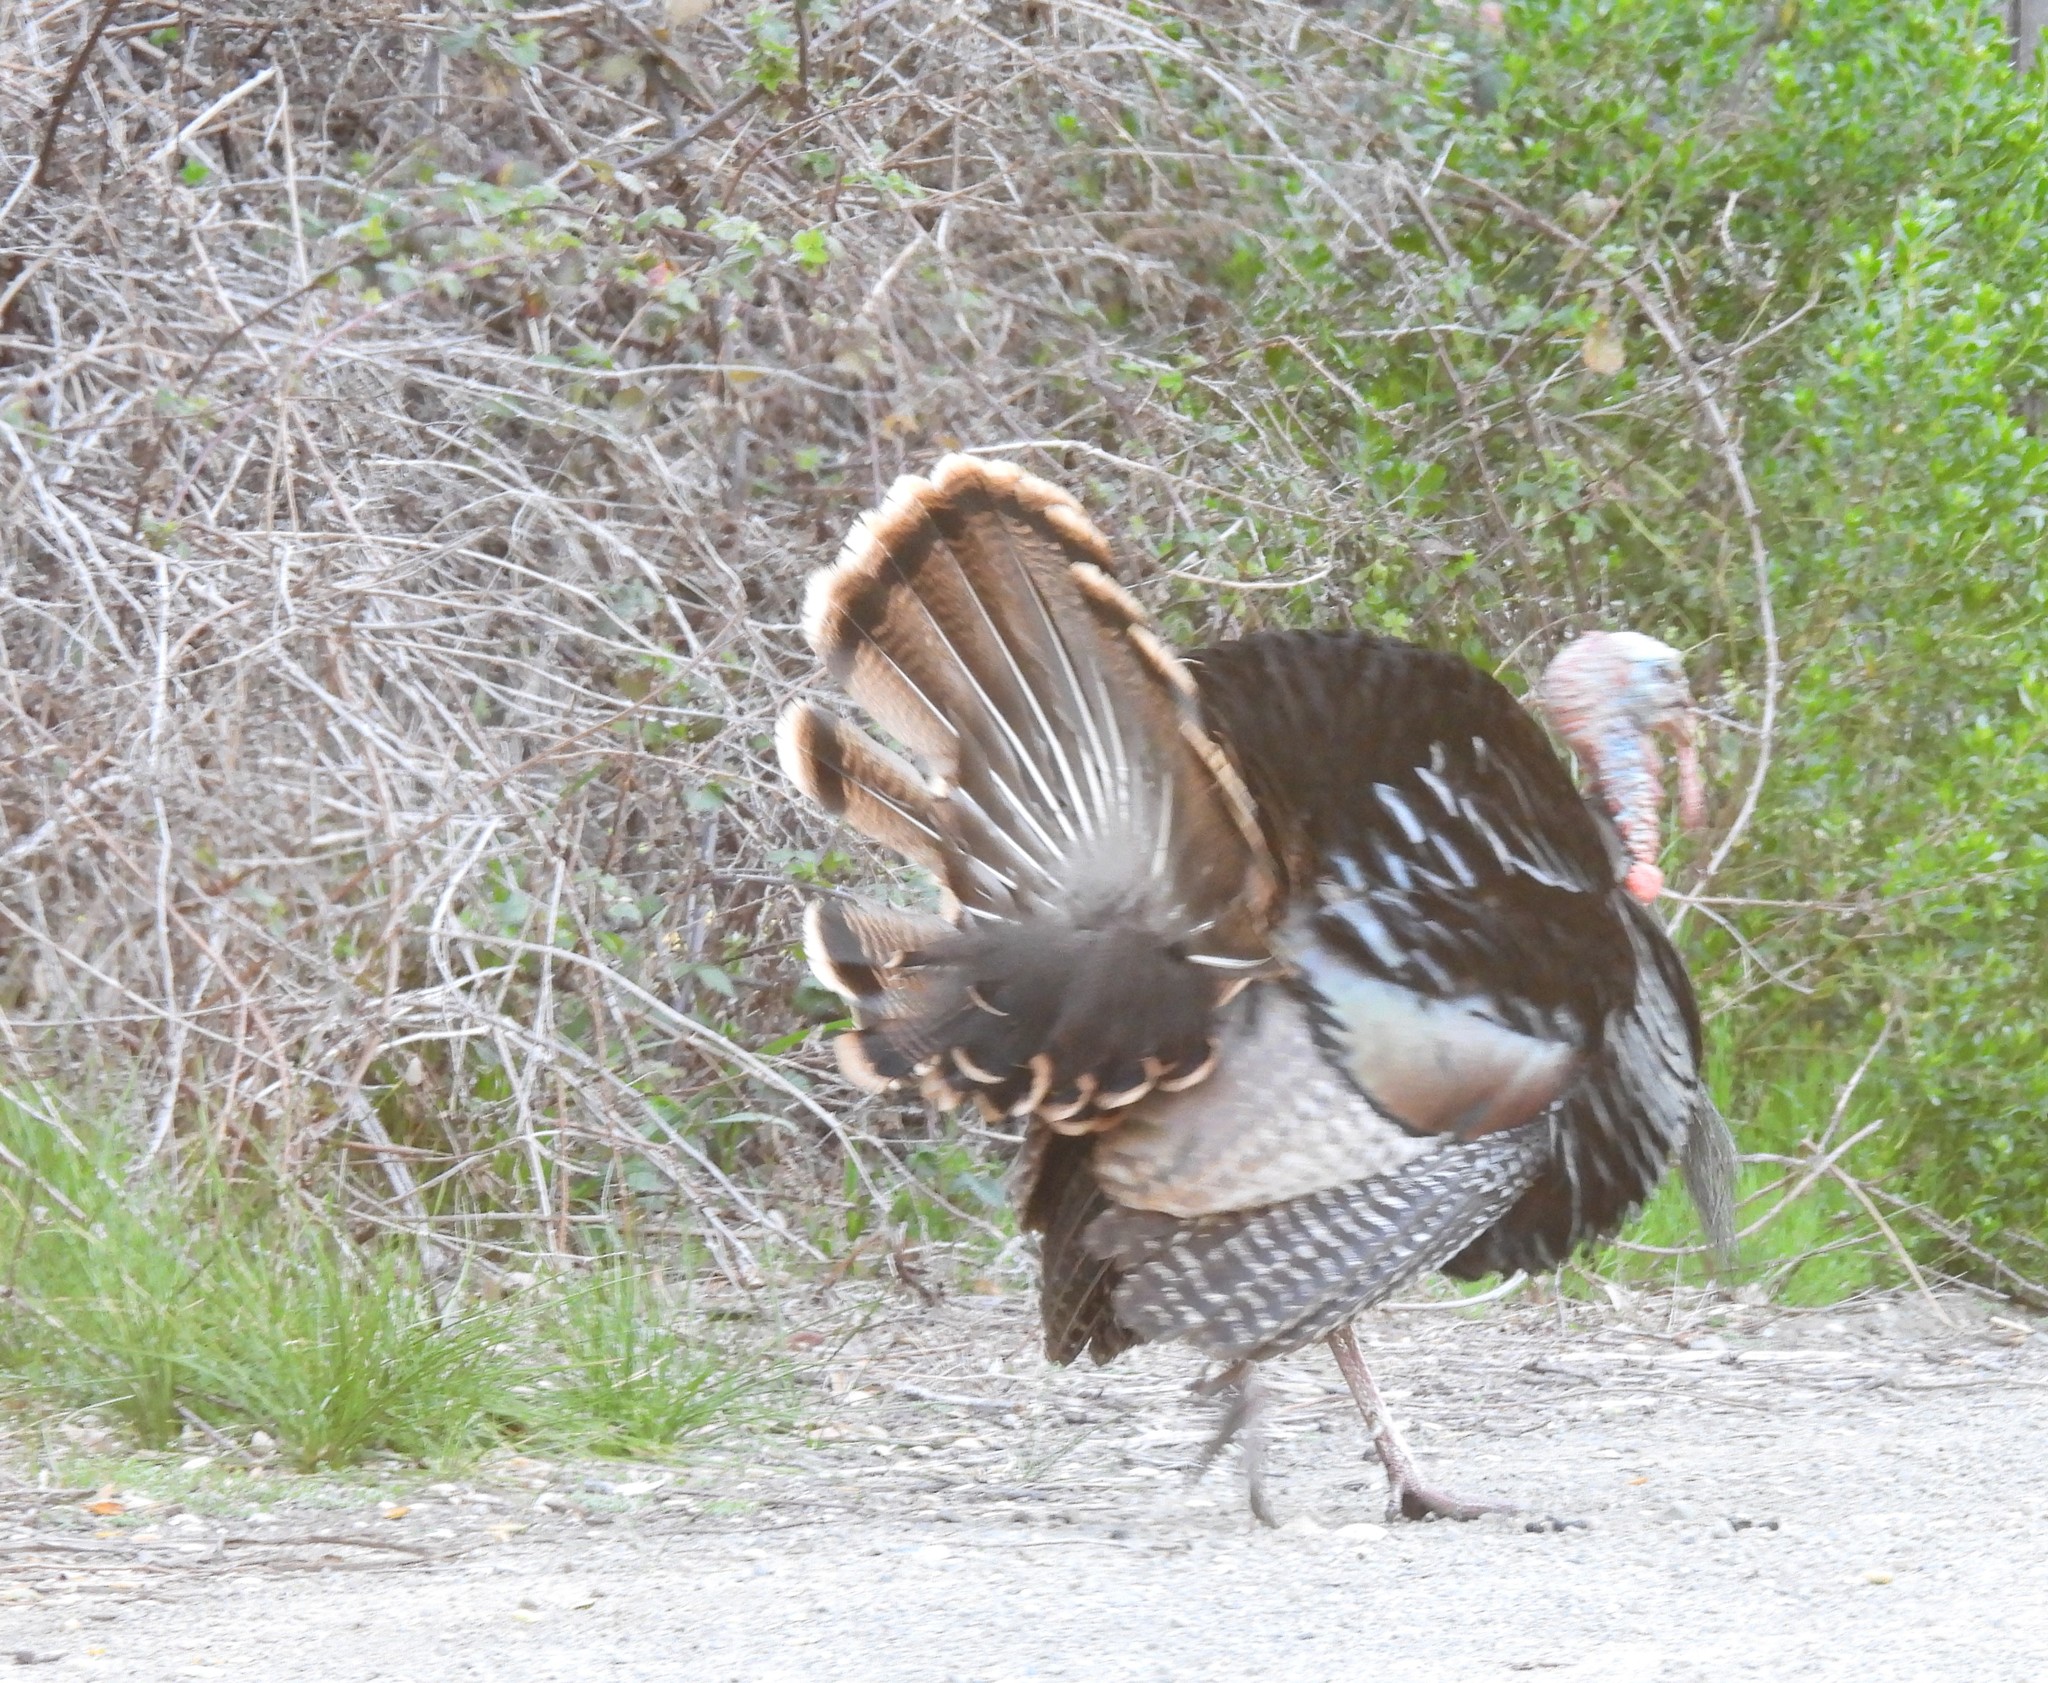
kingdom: Animalia
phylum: Chordata
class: Aves
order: Galliformes
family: Phasianidae
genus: Meleagris
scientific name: Meleagris gallopavo
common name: Wild turkey
